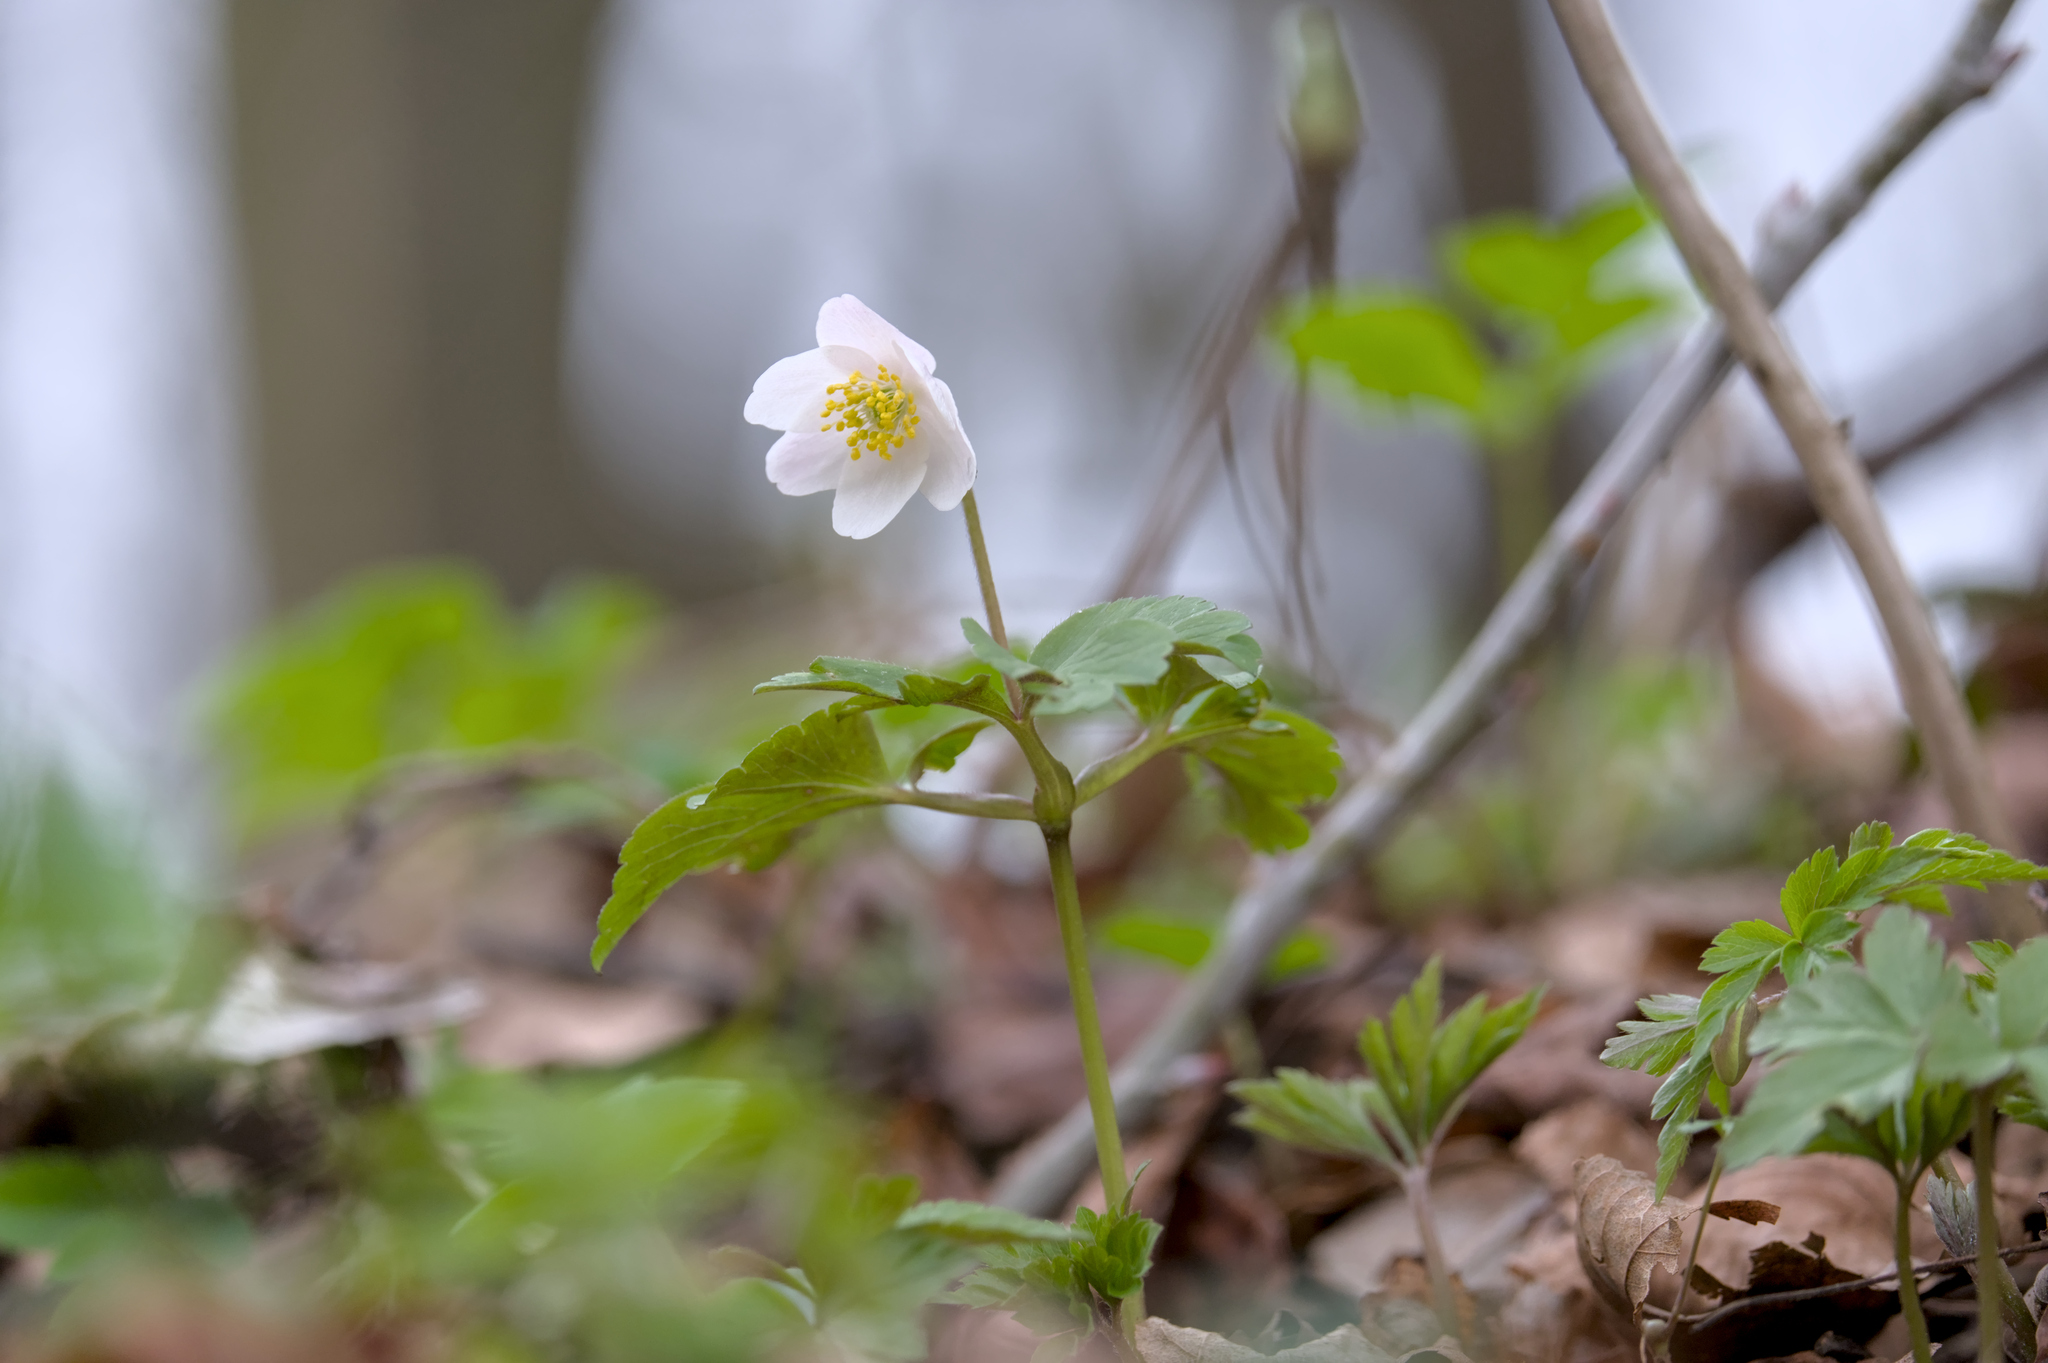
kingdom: Plantae
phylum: Tracheophyta
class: Magnoliopsida
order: Ranunculales
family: Ranunculaceae
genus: Anemone
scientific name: Anemone nemorosa
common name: Wood anemone
